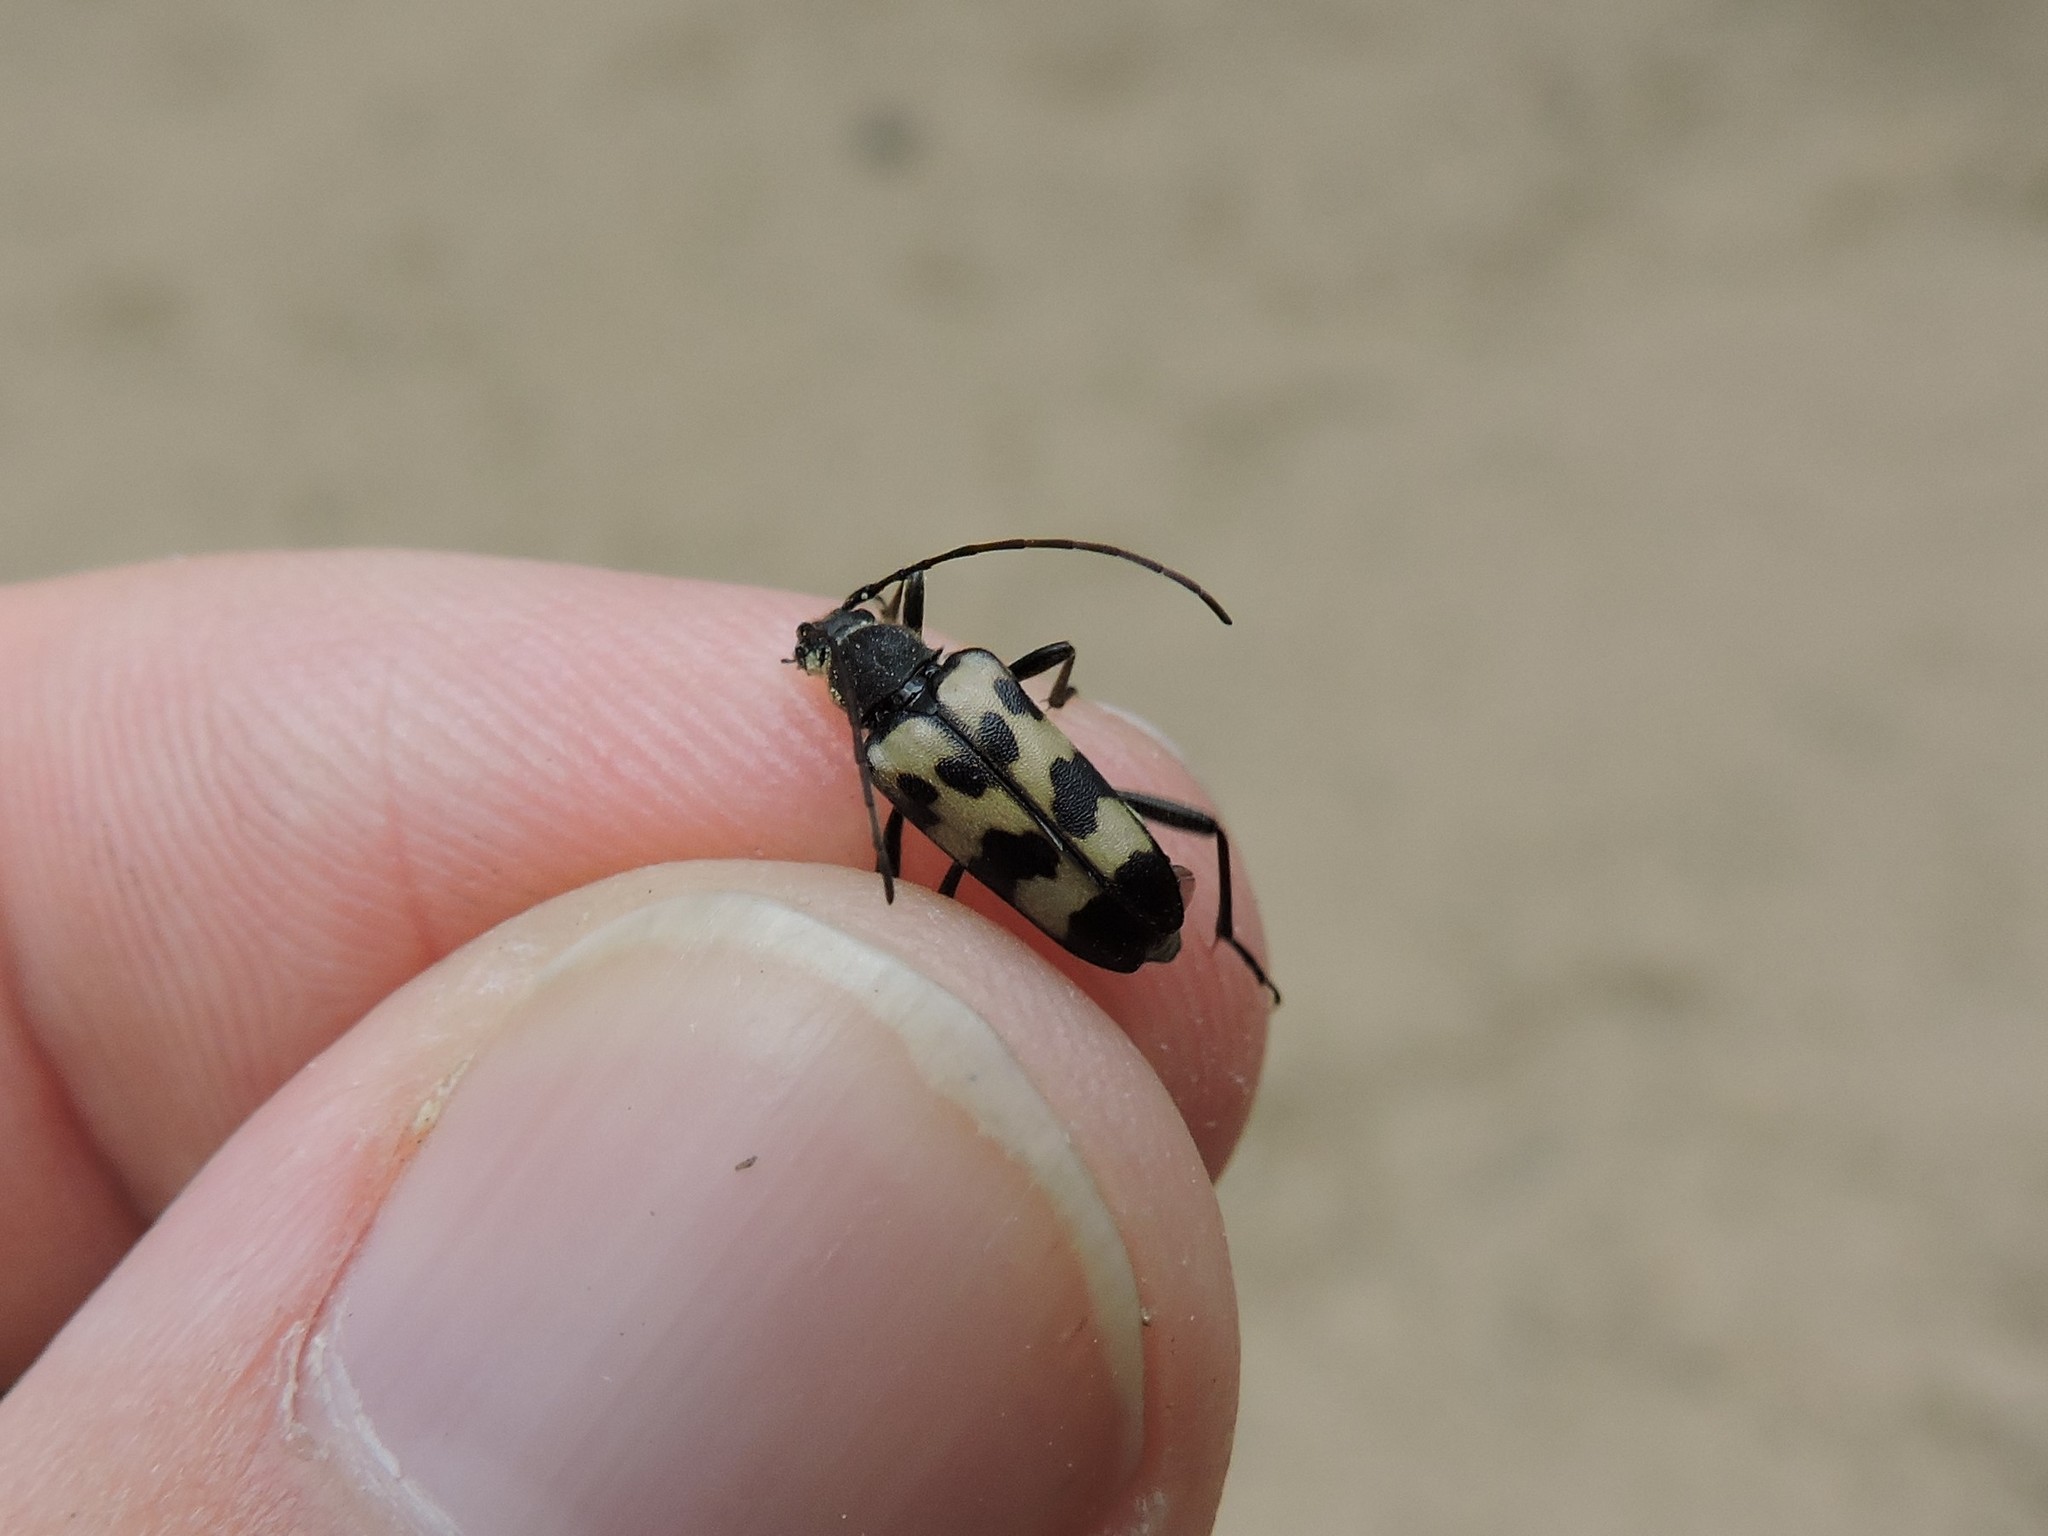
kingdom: Animalia
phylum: Arthropoda
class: Insecta
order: Coleoptera
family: Cerambycidae
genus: Judolia
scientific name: Judolia sexmaculata
